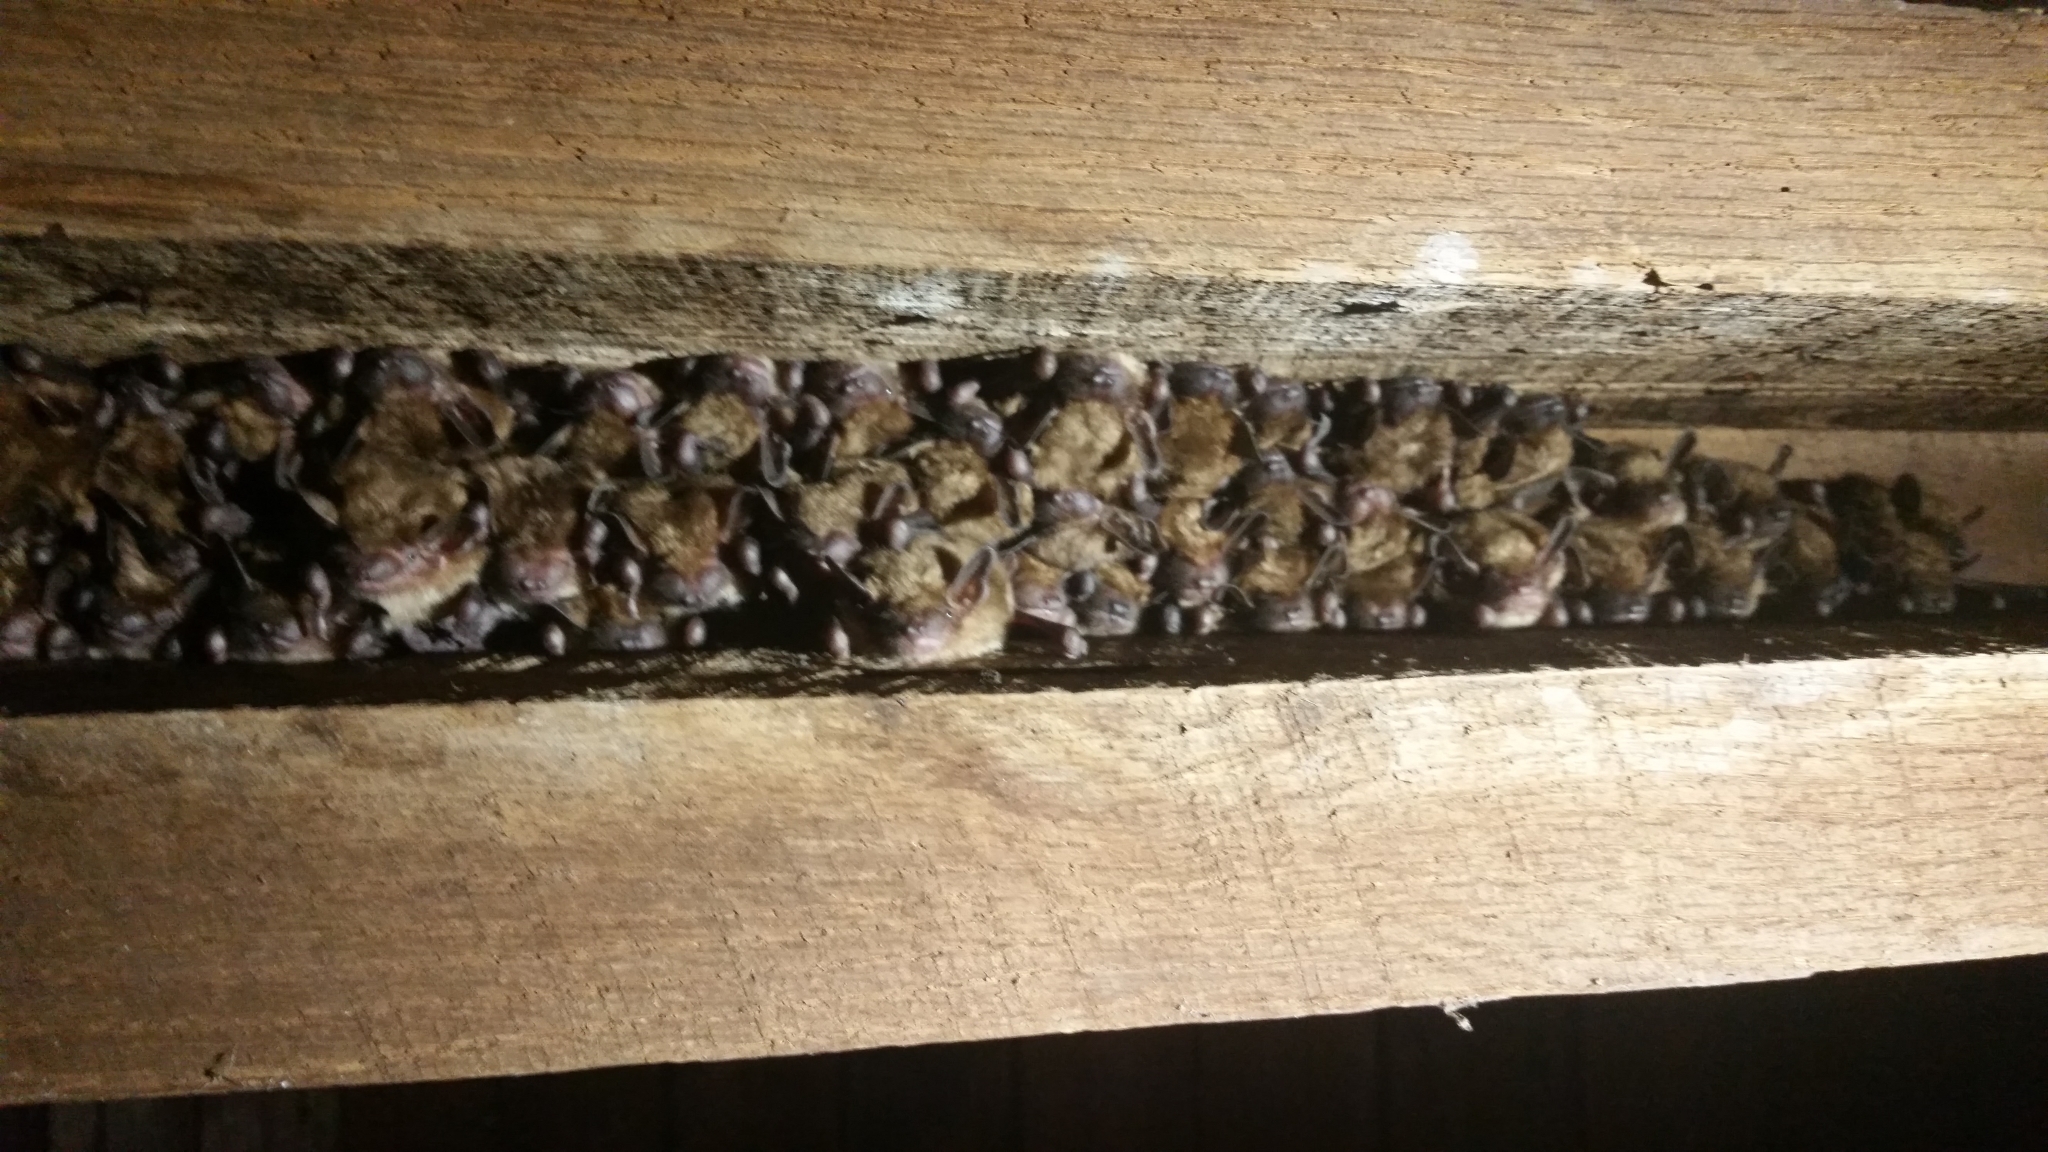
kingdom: Animalia
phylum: Chordata
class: Mammalia
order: Chiroptera
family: Vespertilionidae
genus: Eptesicus
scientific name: Eptesicus fuscus
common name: Big brown bat
